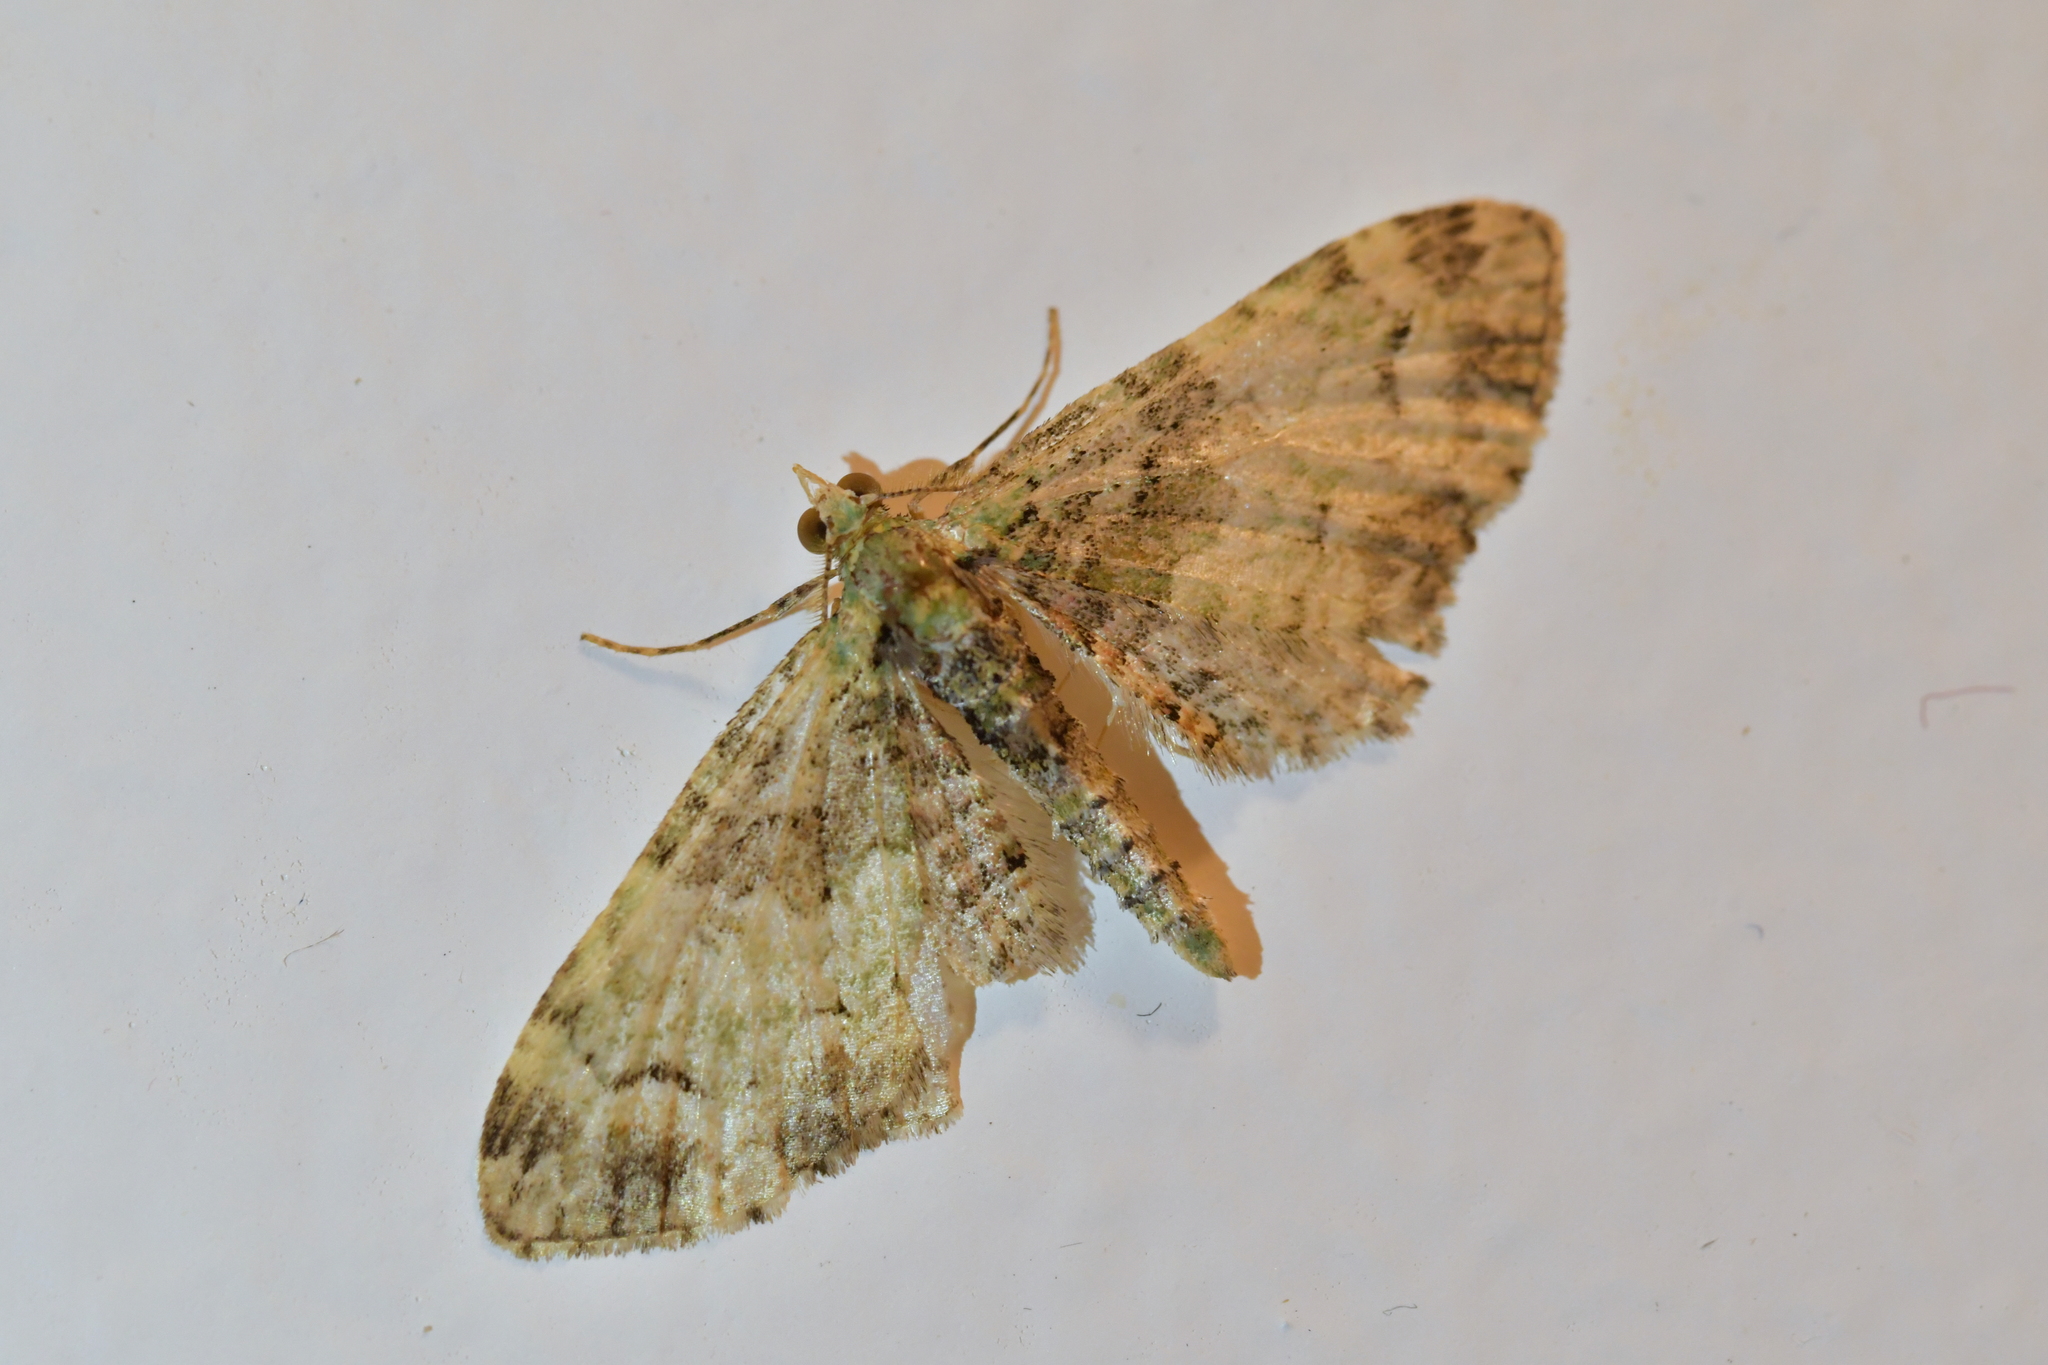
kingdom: Animalia
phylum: Arthropoda
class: Insecta
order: Lepidoptera
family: Geometridae
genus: Idaea
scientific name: Idaea mutanda
